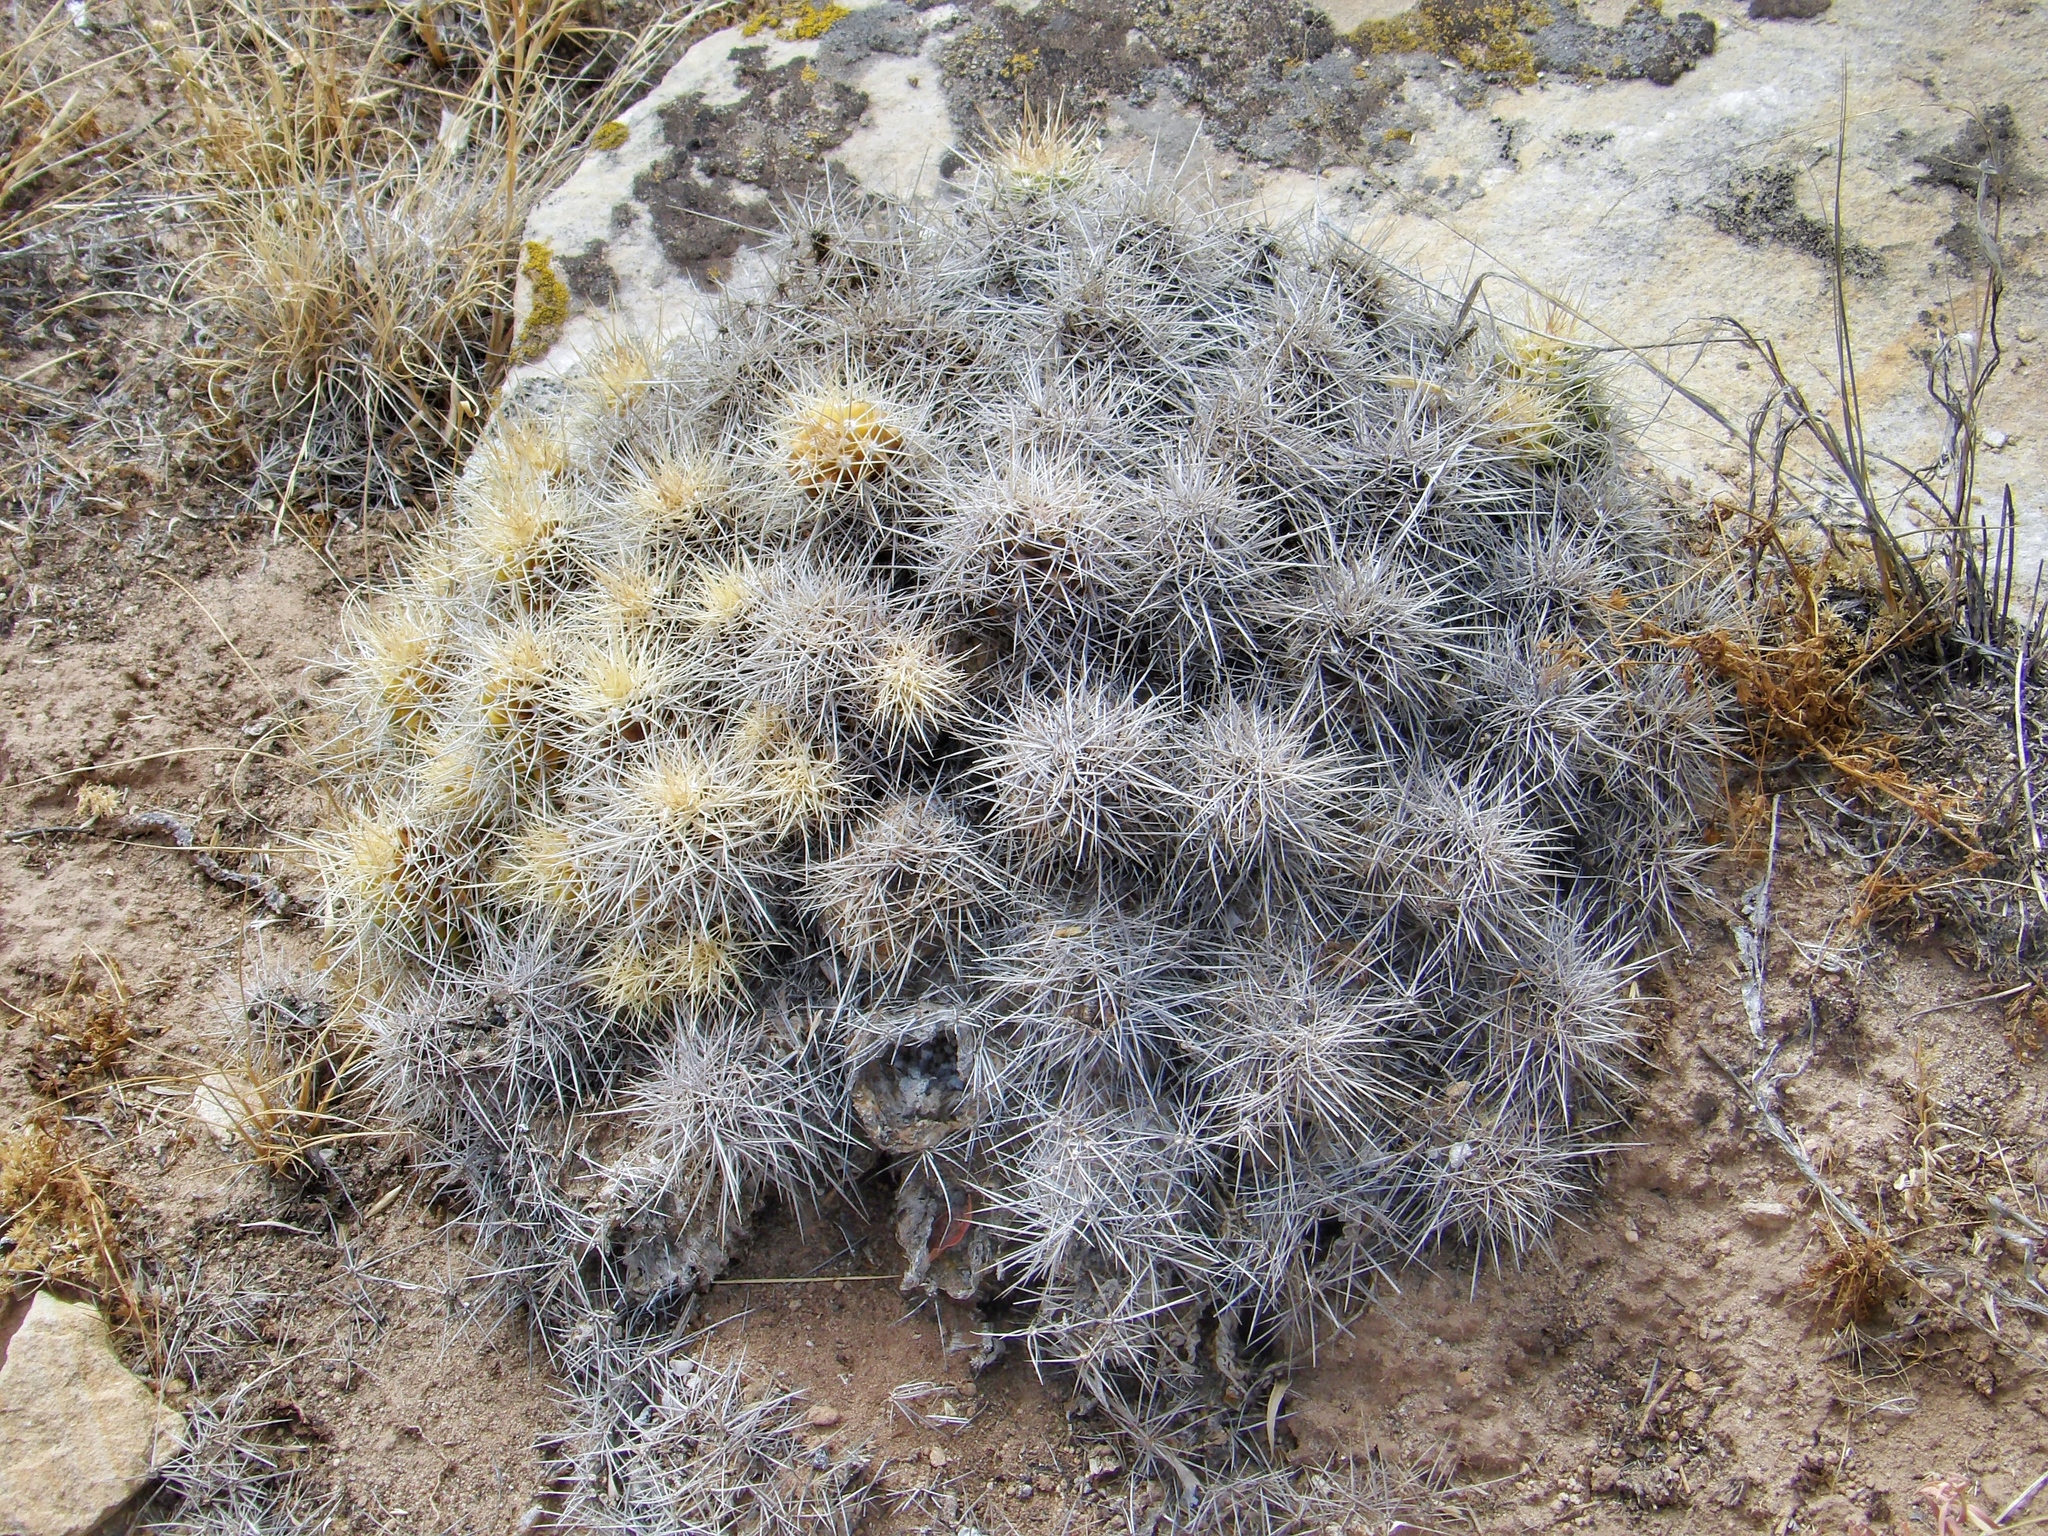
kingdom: Plantae
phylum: Tracheophyta
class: Magnoliopsida
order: Caryophyllales
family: Cactaceae
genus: Echinocereus
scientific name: Echinocereus triglochidiatus
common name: Claretcup hedgehog
